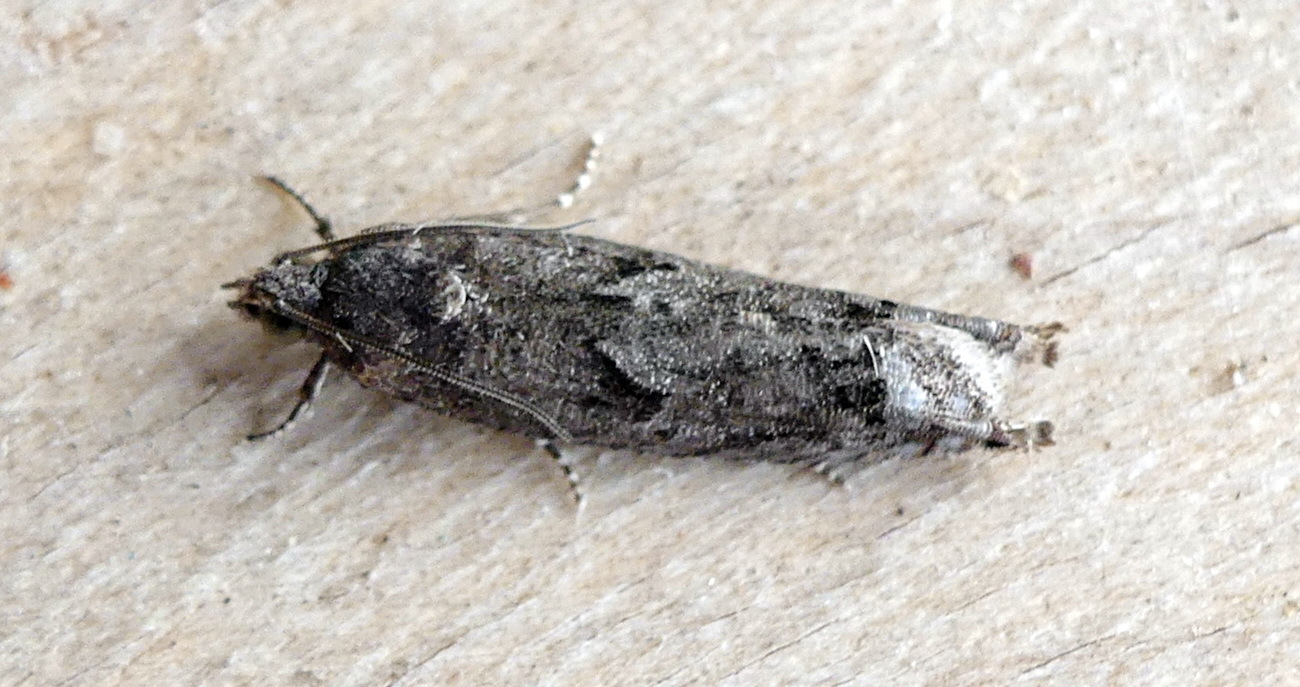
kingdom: Animalia
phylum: Arthropoda
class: Insecta
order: Lepidoptera
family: Tortricidae
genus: Pseudexentera
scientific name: Pseudexentera cressoniana
